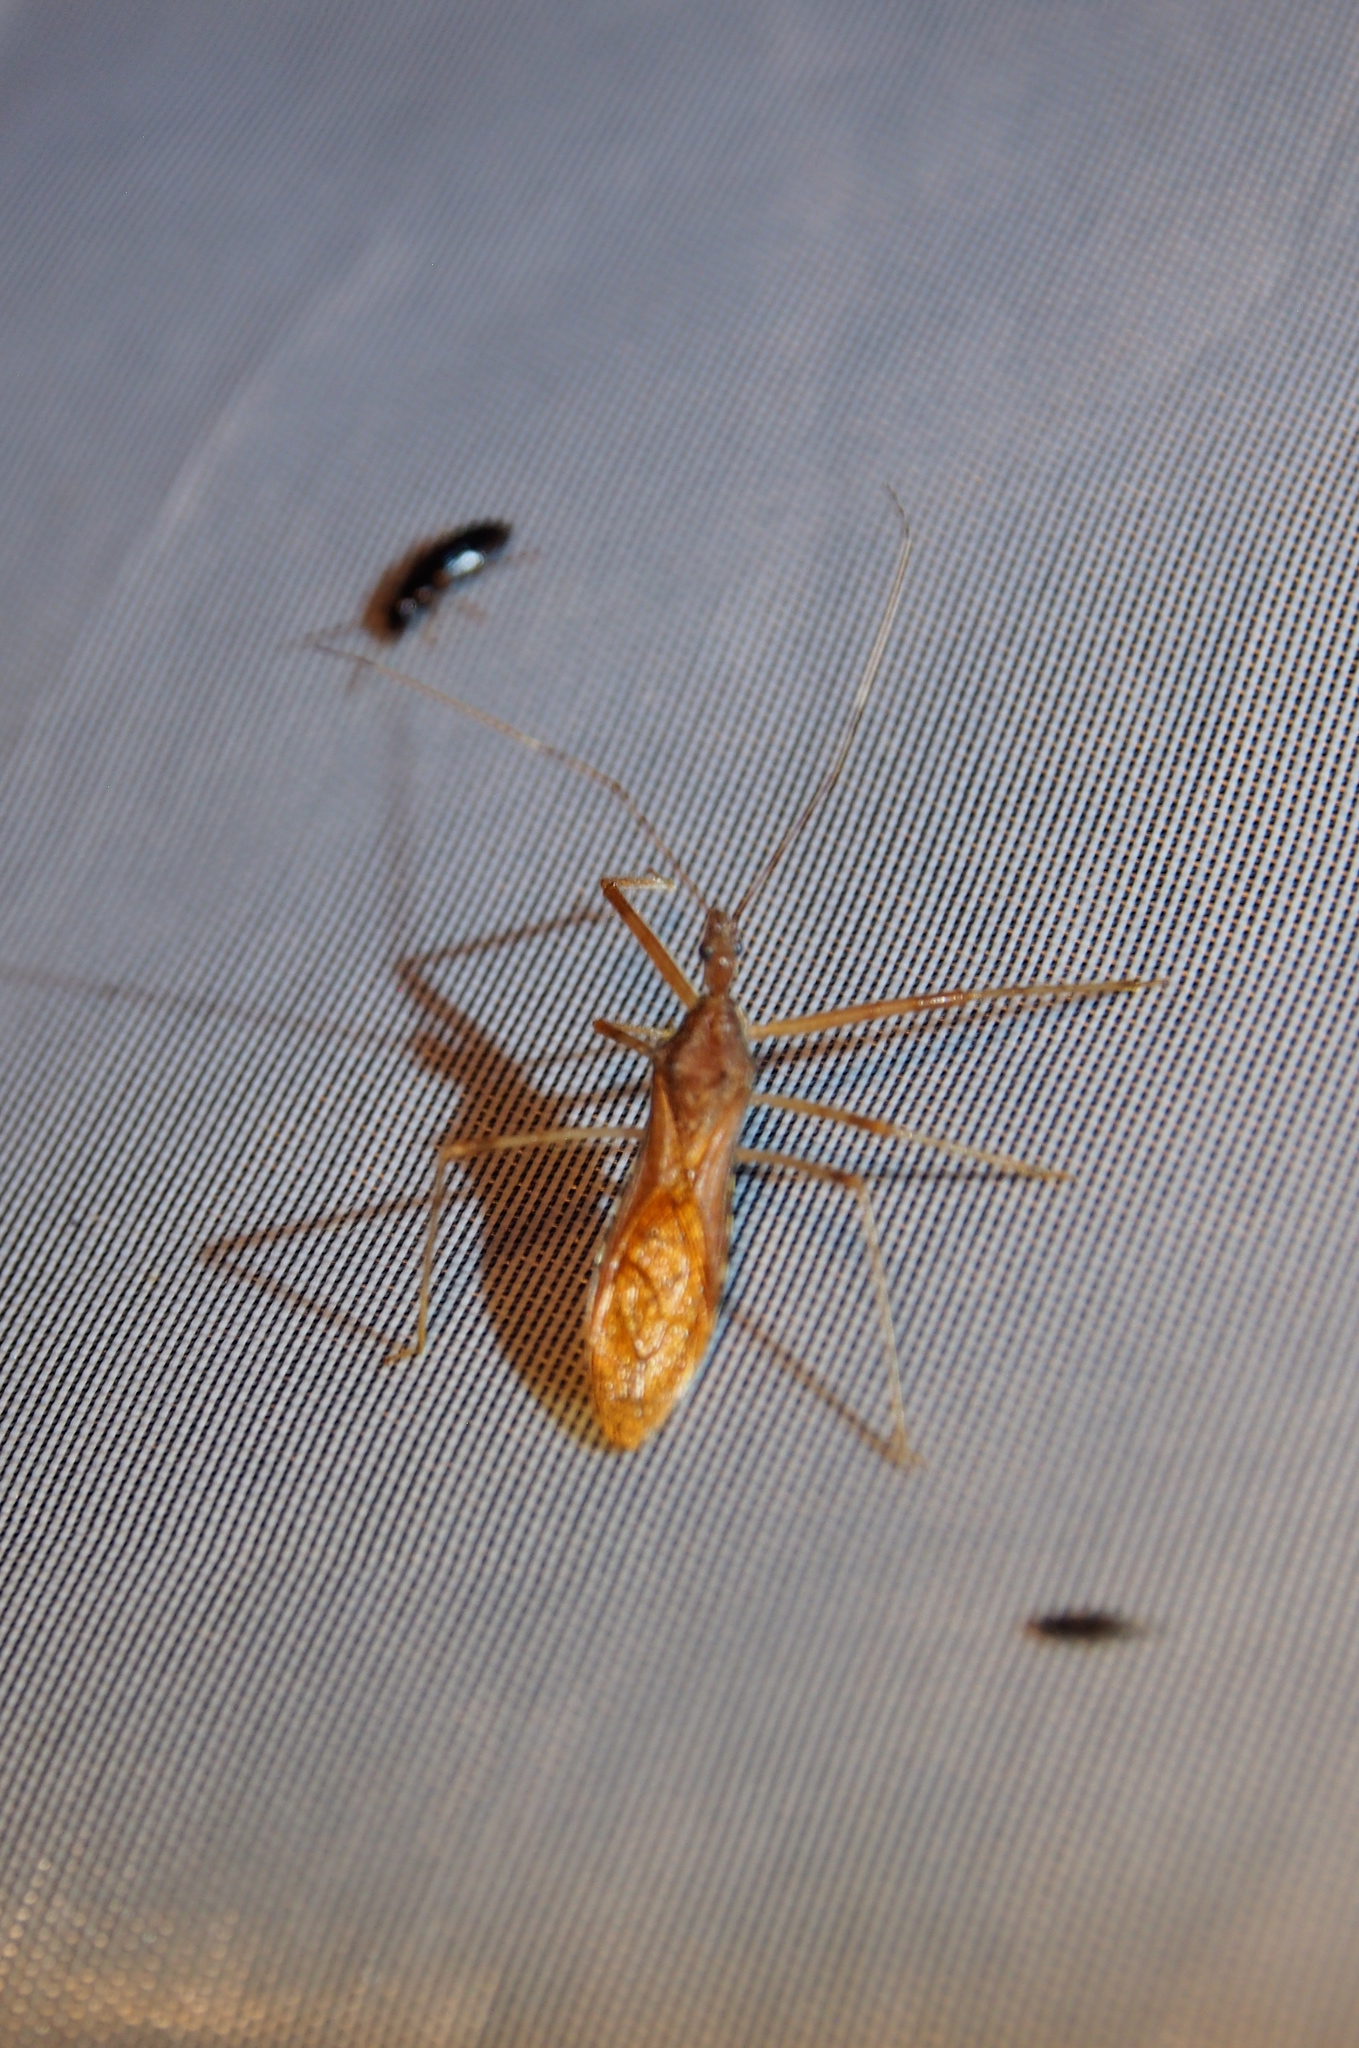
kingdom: Animalia
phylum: Arthropoda
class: Insecta
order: Hemiptera
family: Reduviidae
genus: Rocconota
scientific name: Rocconota annulicornis
